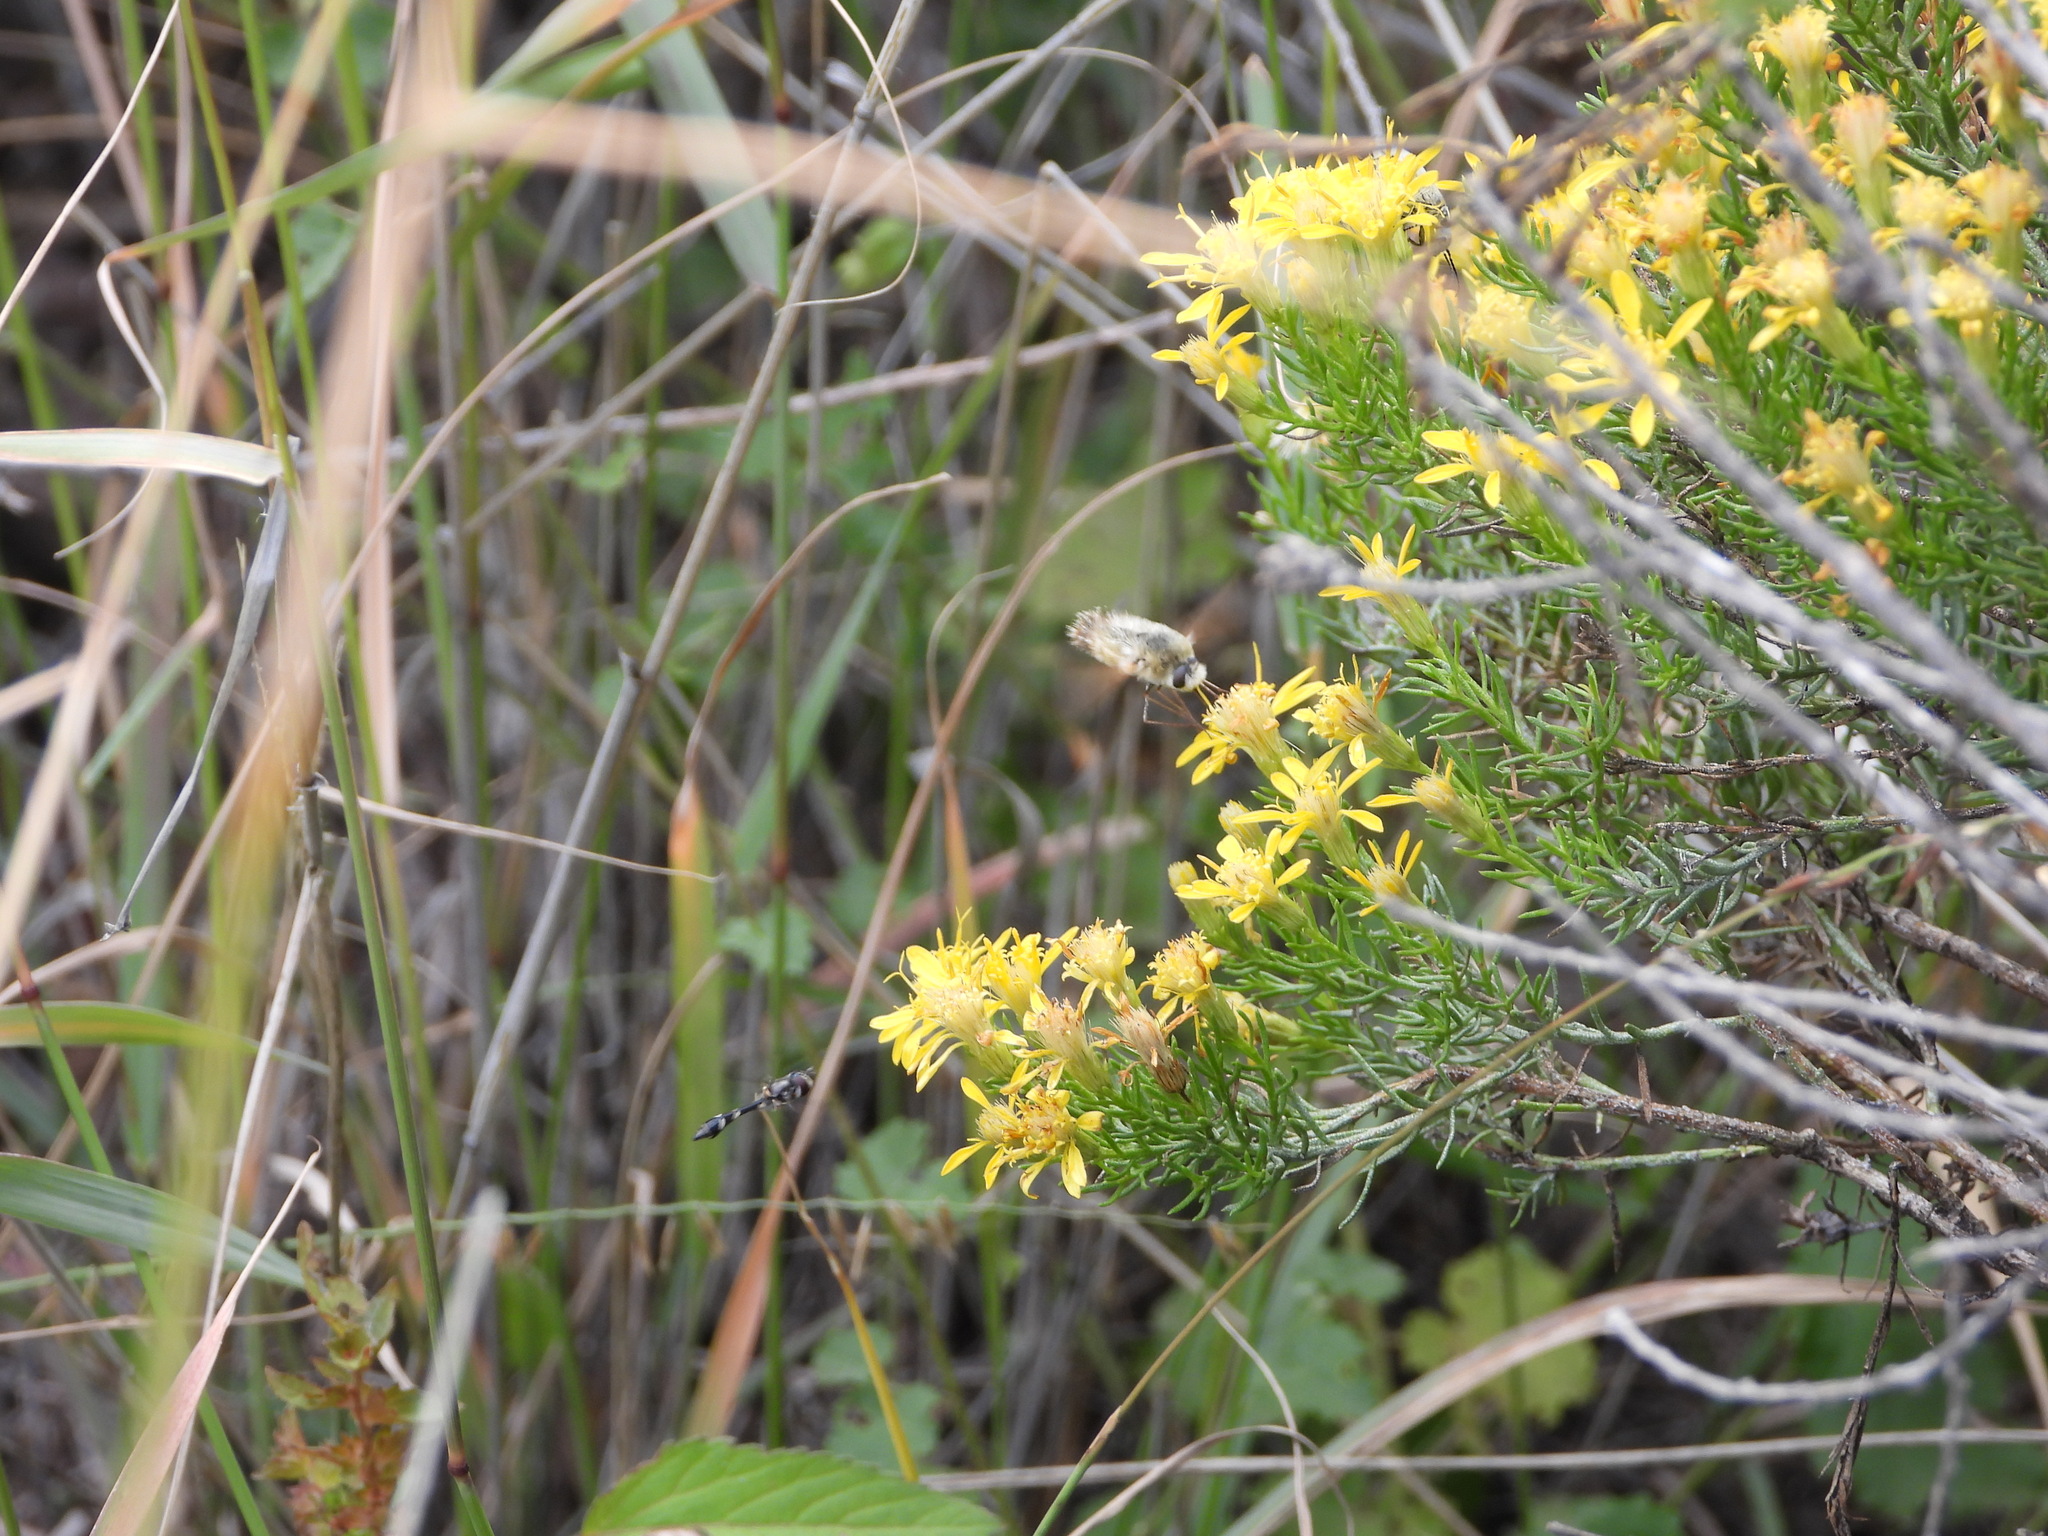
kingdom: Animalia
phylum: Arthropoda
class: Insecta
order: Diptera
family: Syrphidae
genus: Dioprosopa
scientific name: Dioprosopa clavatus
